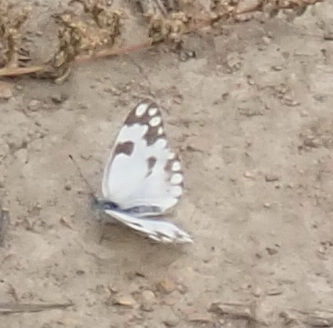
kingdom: Animalia
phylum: Arthropoda
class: Insecta
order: Lepidoptera
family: Pieridae
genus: Pontia
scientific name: Pontia helice
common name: Meadow white
